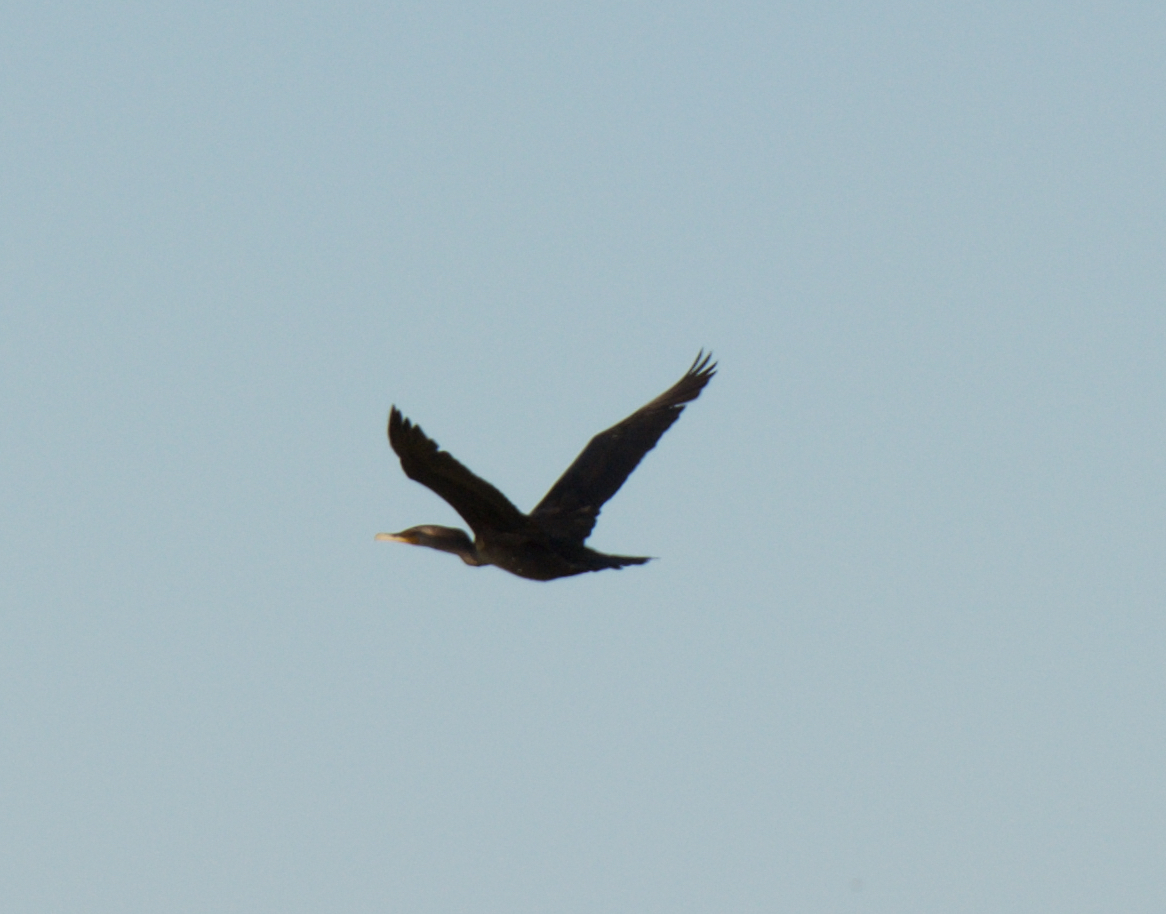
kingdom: Animalia
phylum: Chordata
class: Aves
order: Suliformes
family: Phalacrocoracidae
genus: Phalacrocorax
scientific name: Phalacrocorax auritus
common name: Double-crested cormorant
